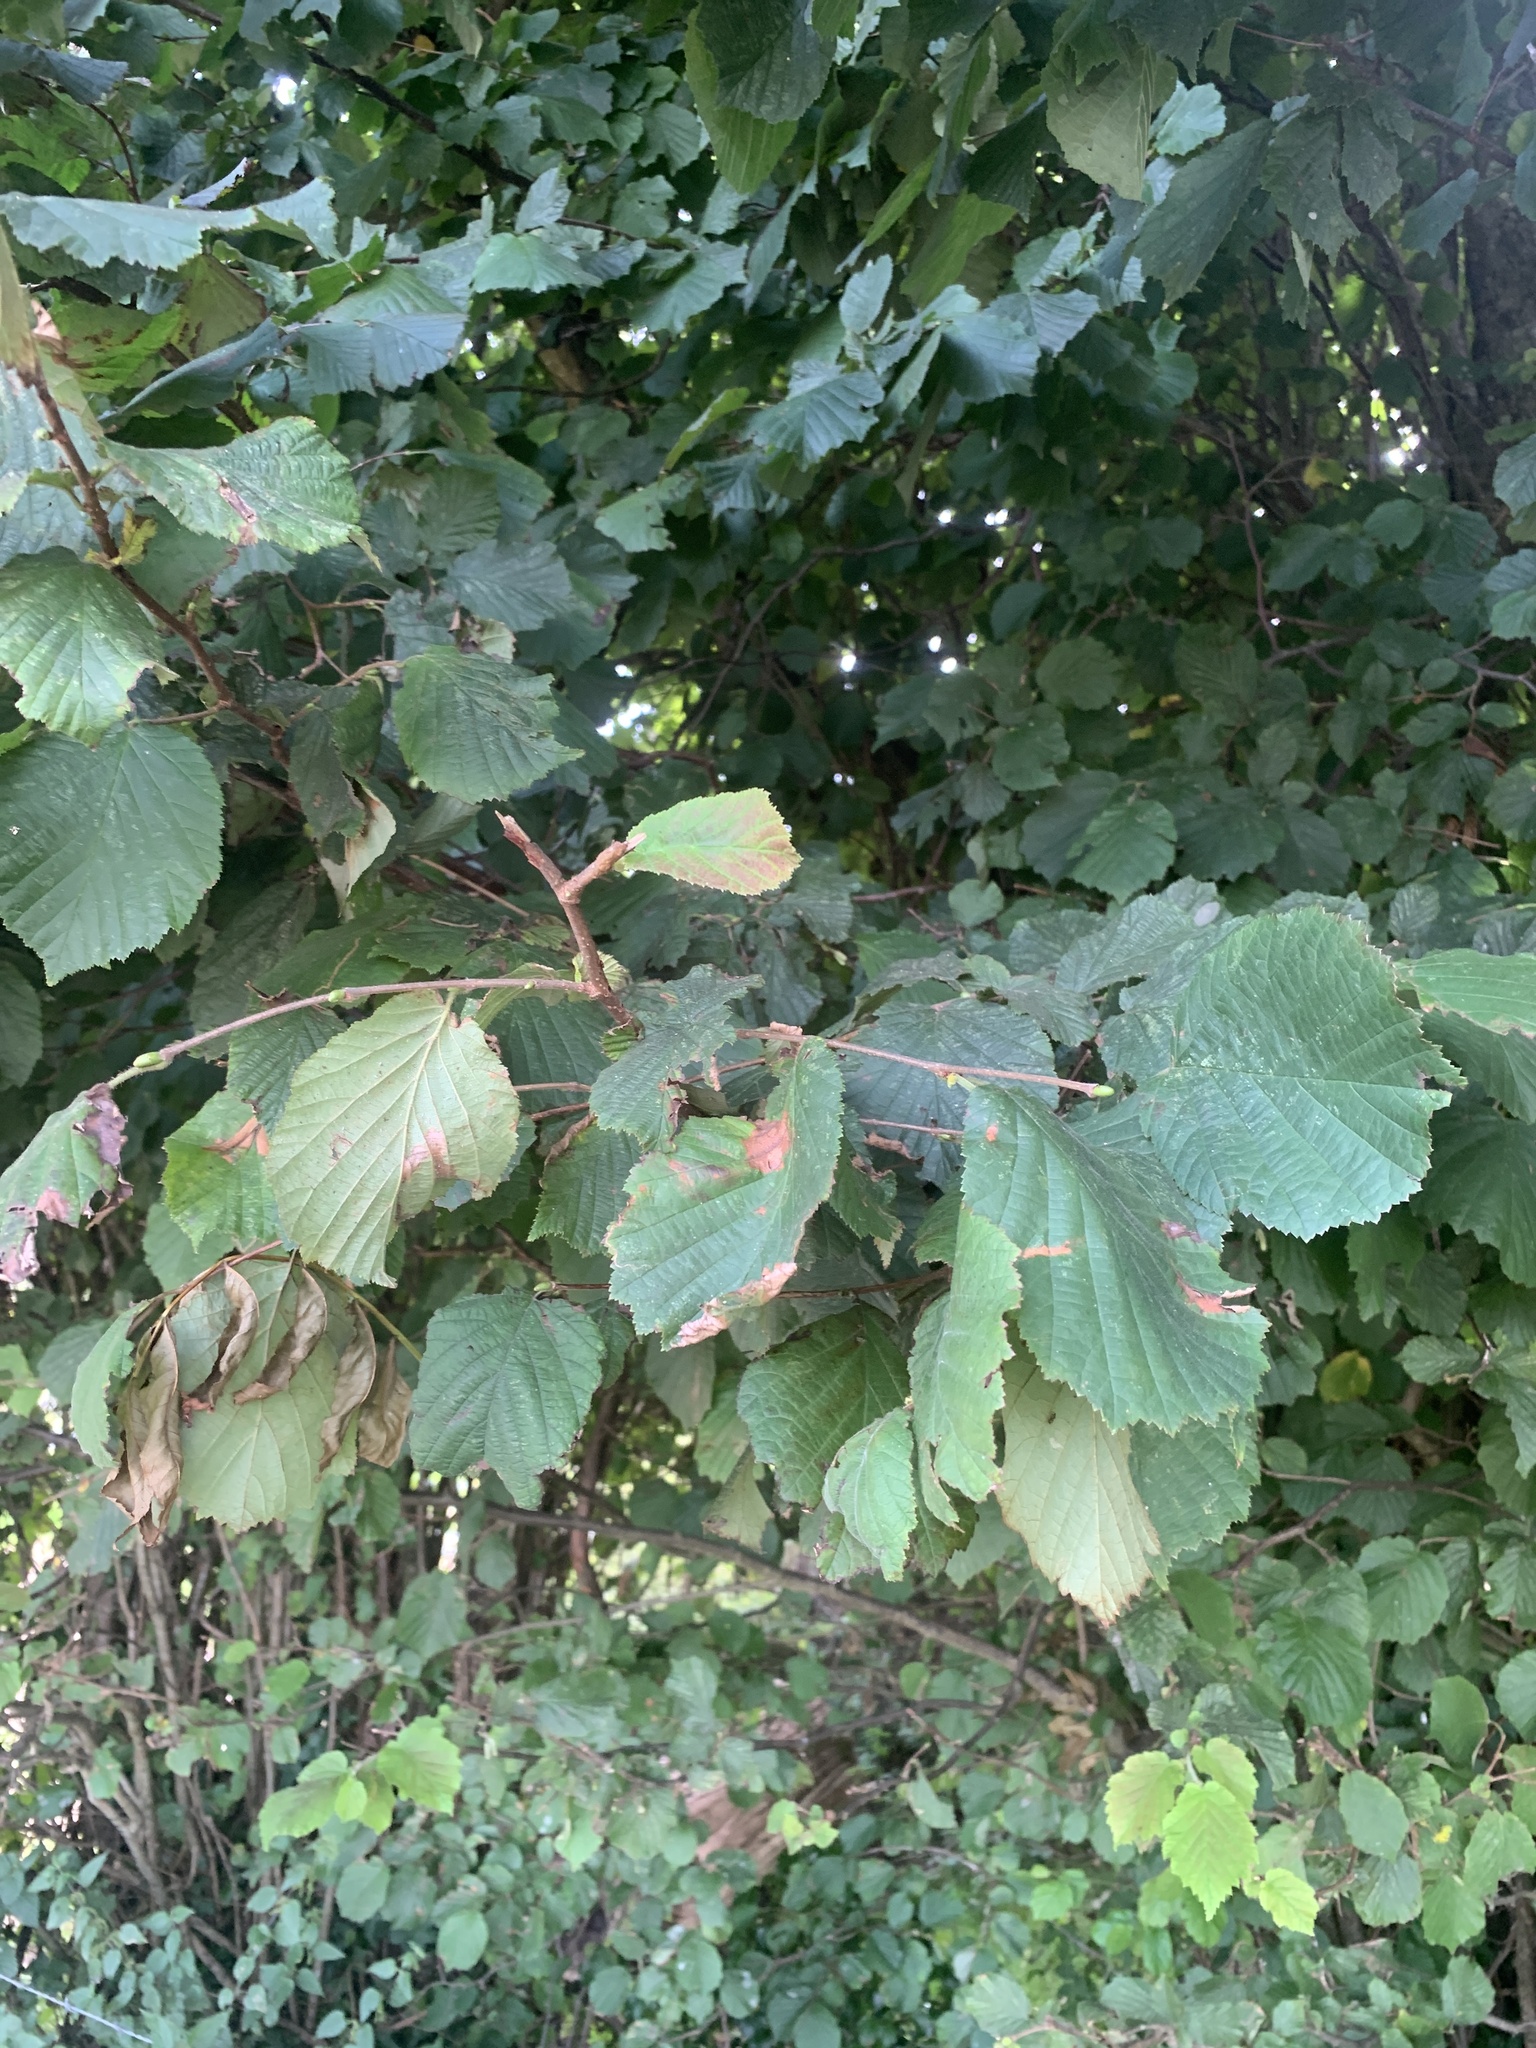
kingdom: Plantae
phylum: Tracheophyta
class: Magnoliopsida
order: Fagales
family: Betulaceae
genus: Corylus
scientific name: Corylus avellana
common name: European hazel
